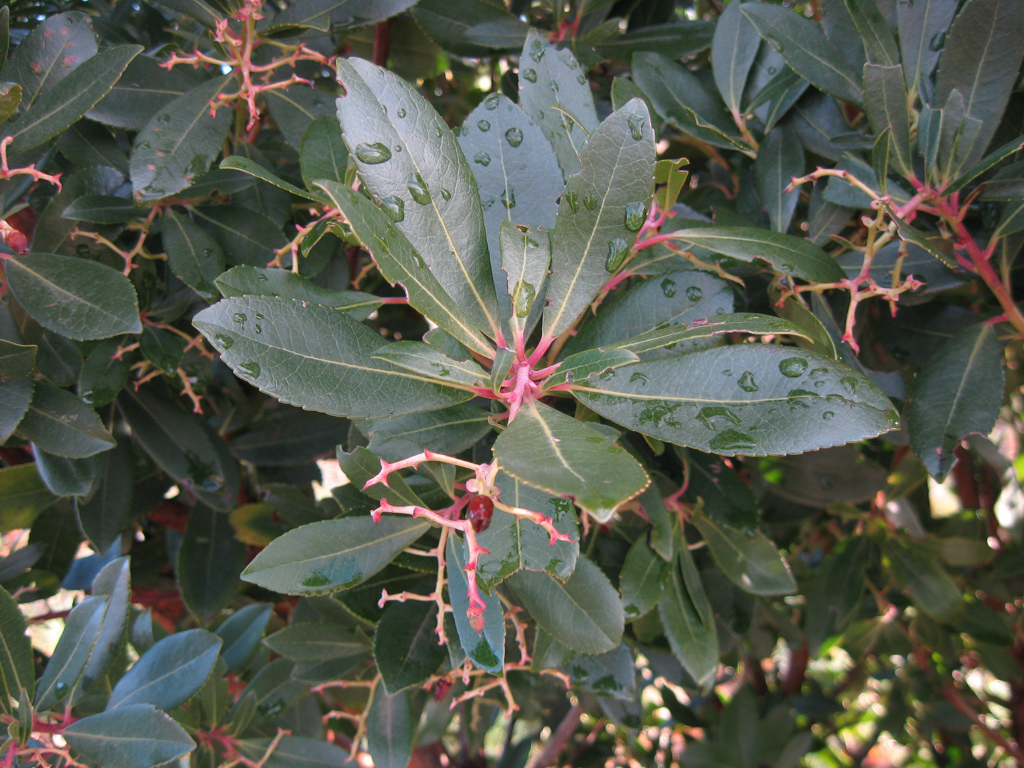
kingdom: Plantae
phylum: Tracheophyta
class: Magnoliopsida
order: Ericales
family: Ericaceae
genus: Arbutus
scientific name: Arbutus unedo
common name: Strawberry-tree
